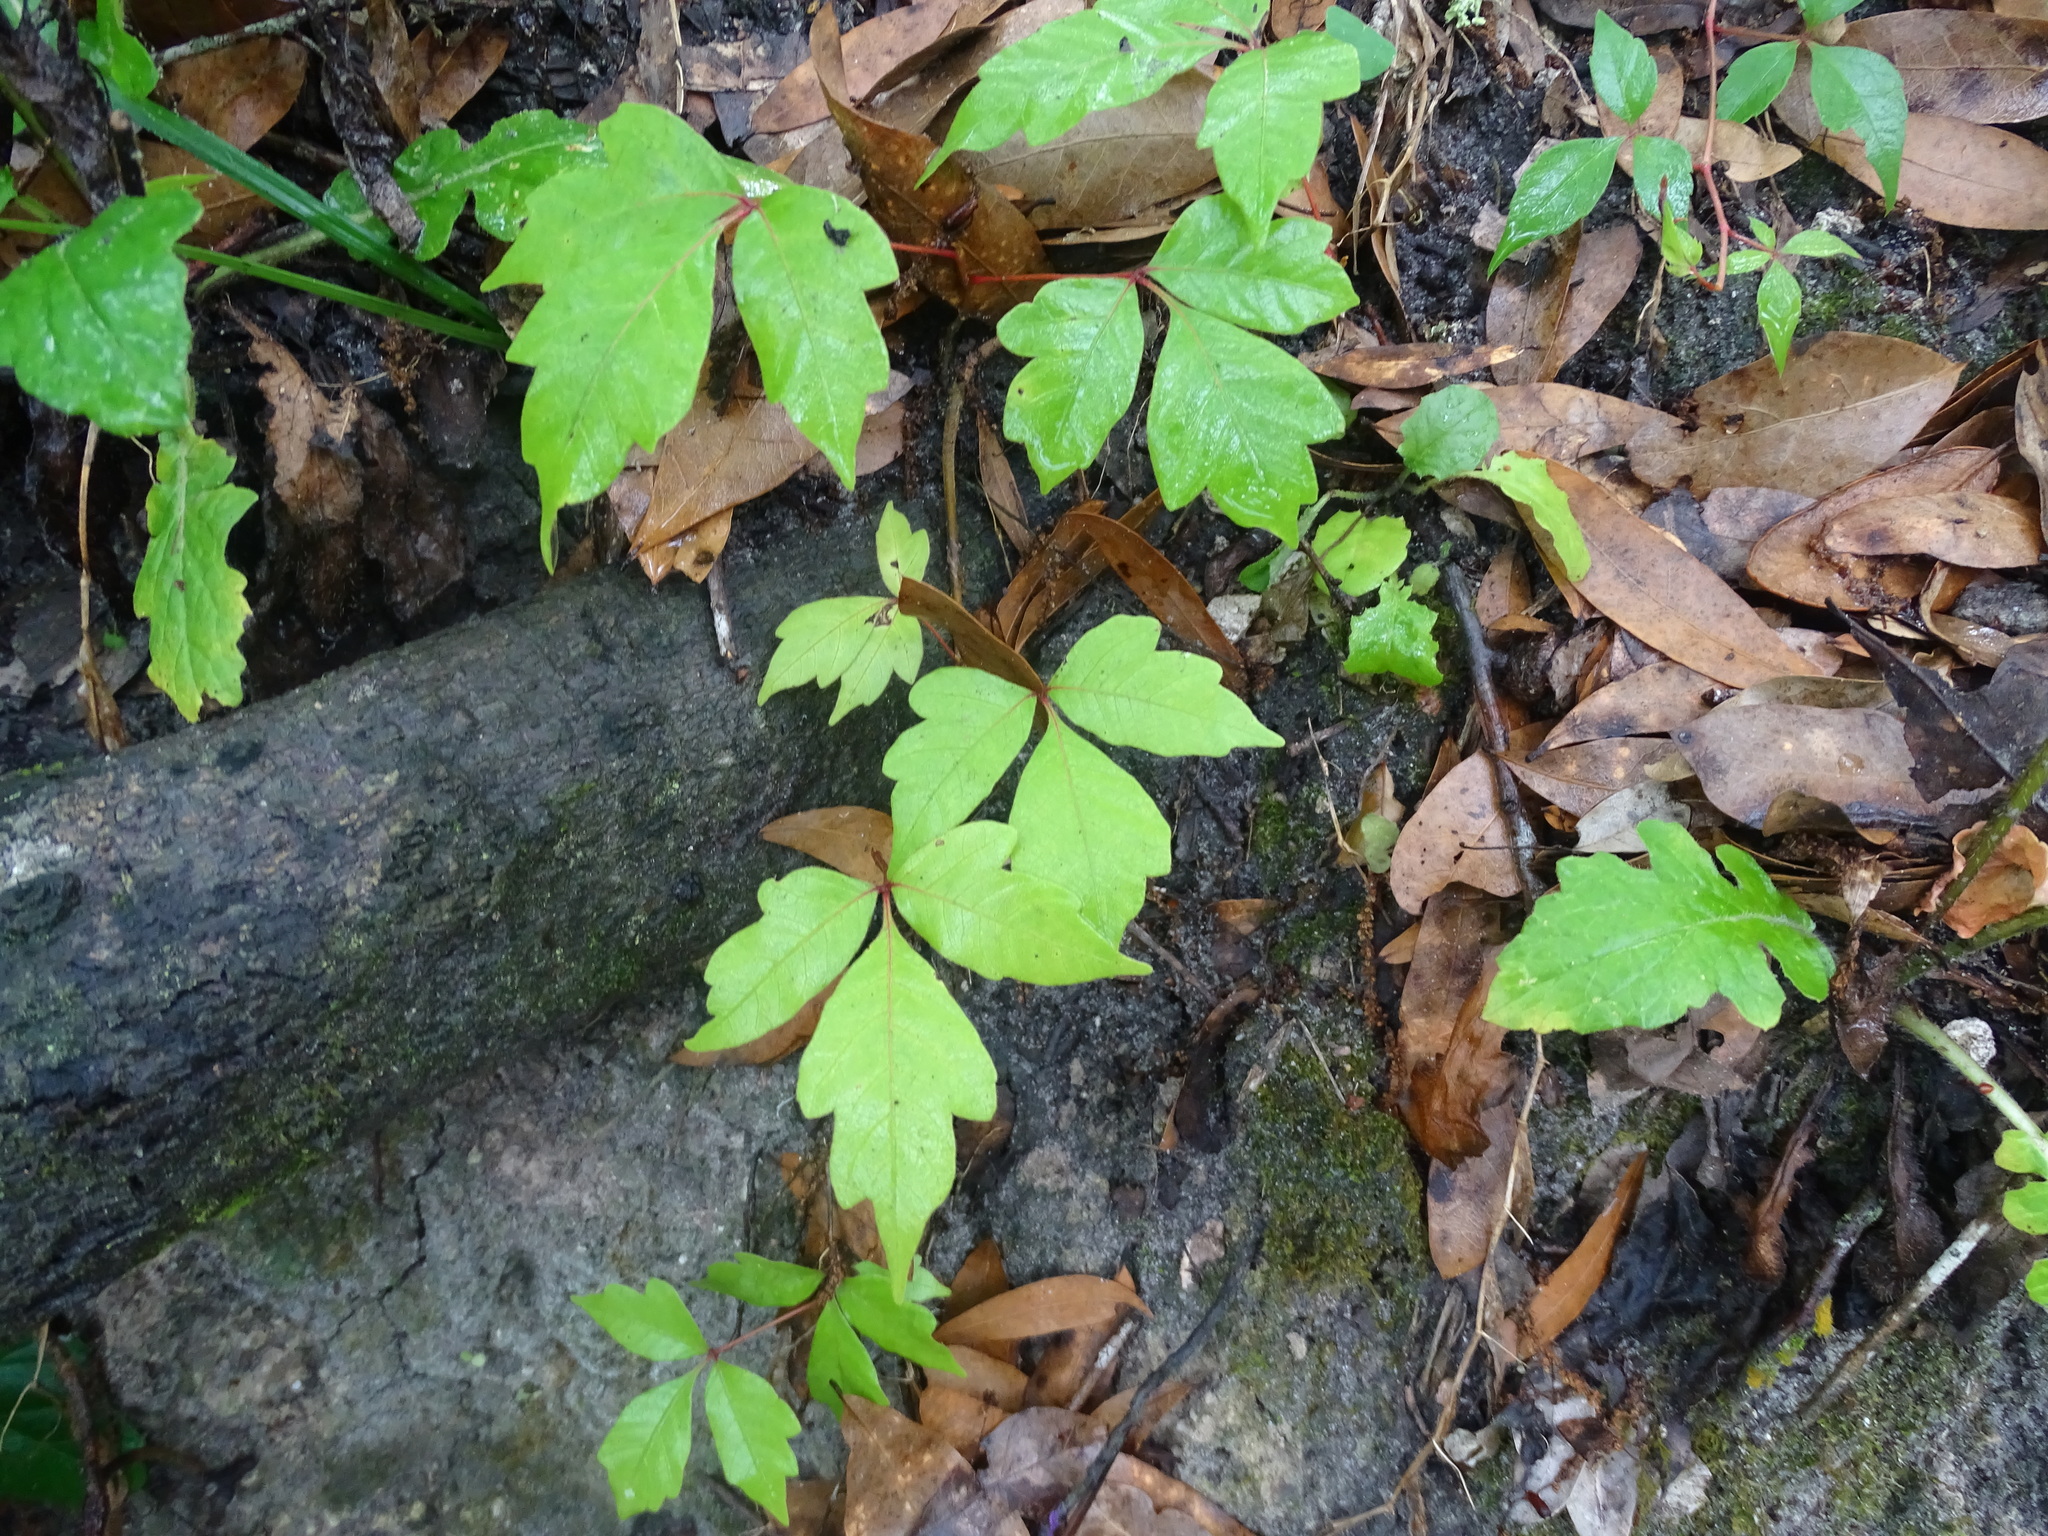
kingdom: Plantae
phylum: Tracheophyta
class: Magnoliopsida
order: Sapindales
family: Anacardiaceae
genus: Toxicodendron
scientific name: Toxicodendron radicans
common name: Poison ivy
